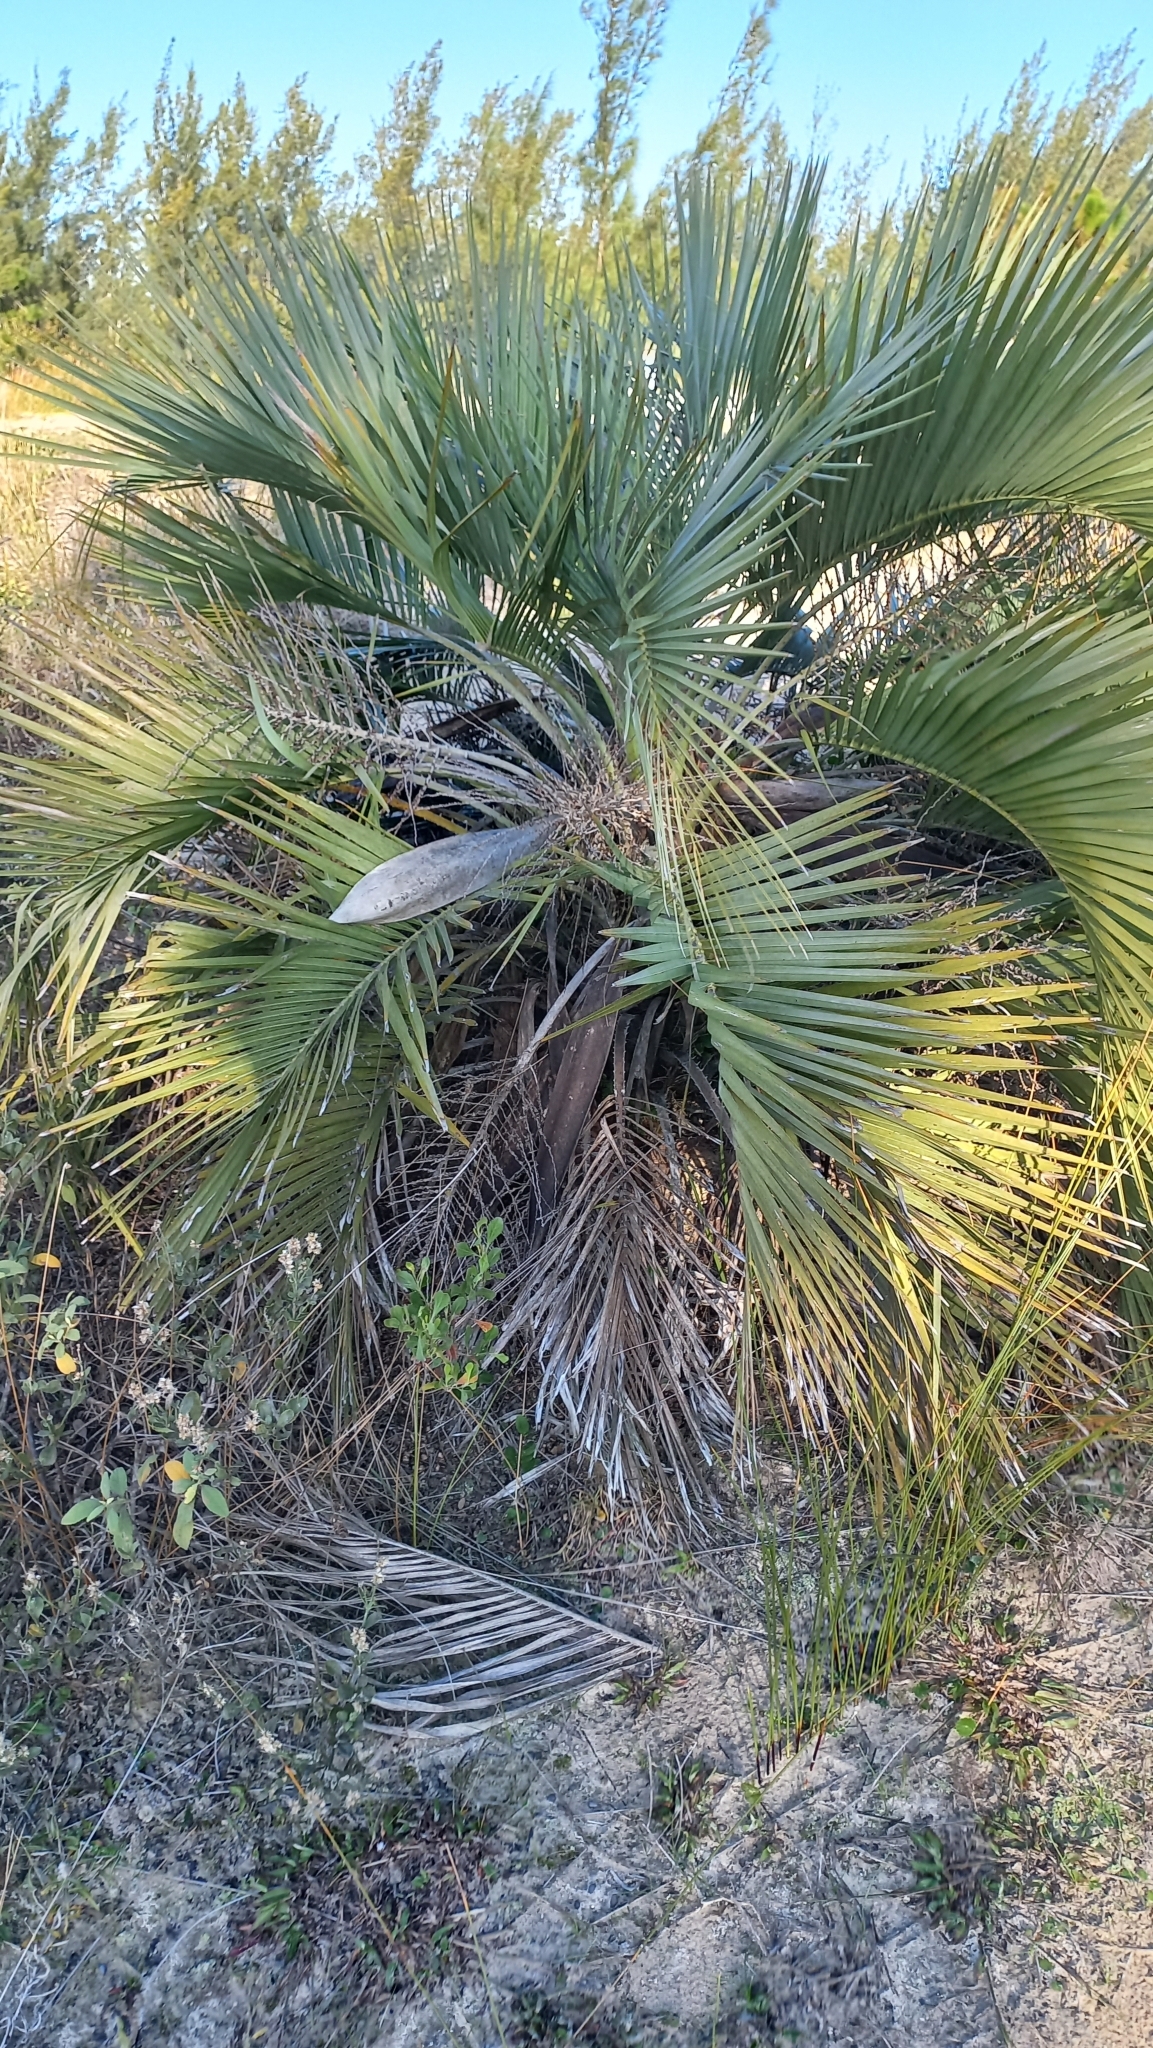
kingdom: Plantae
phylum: Tracheophyta
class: Liliopsida
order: Arecales
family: Arecaceae
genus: Butia
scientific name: Butia catarinensis
